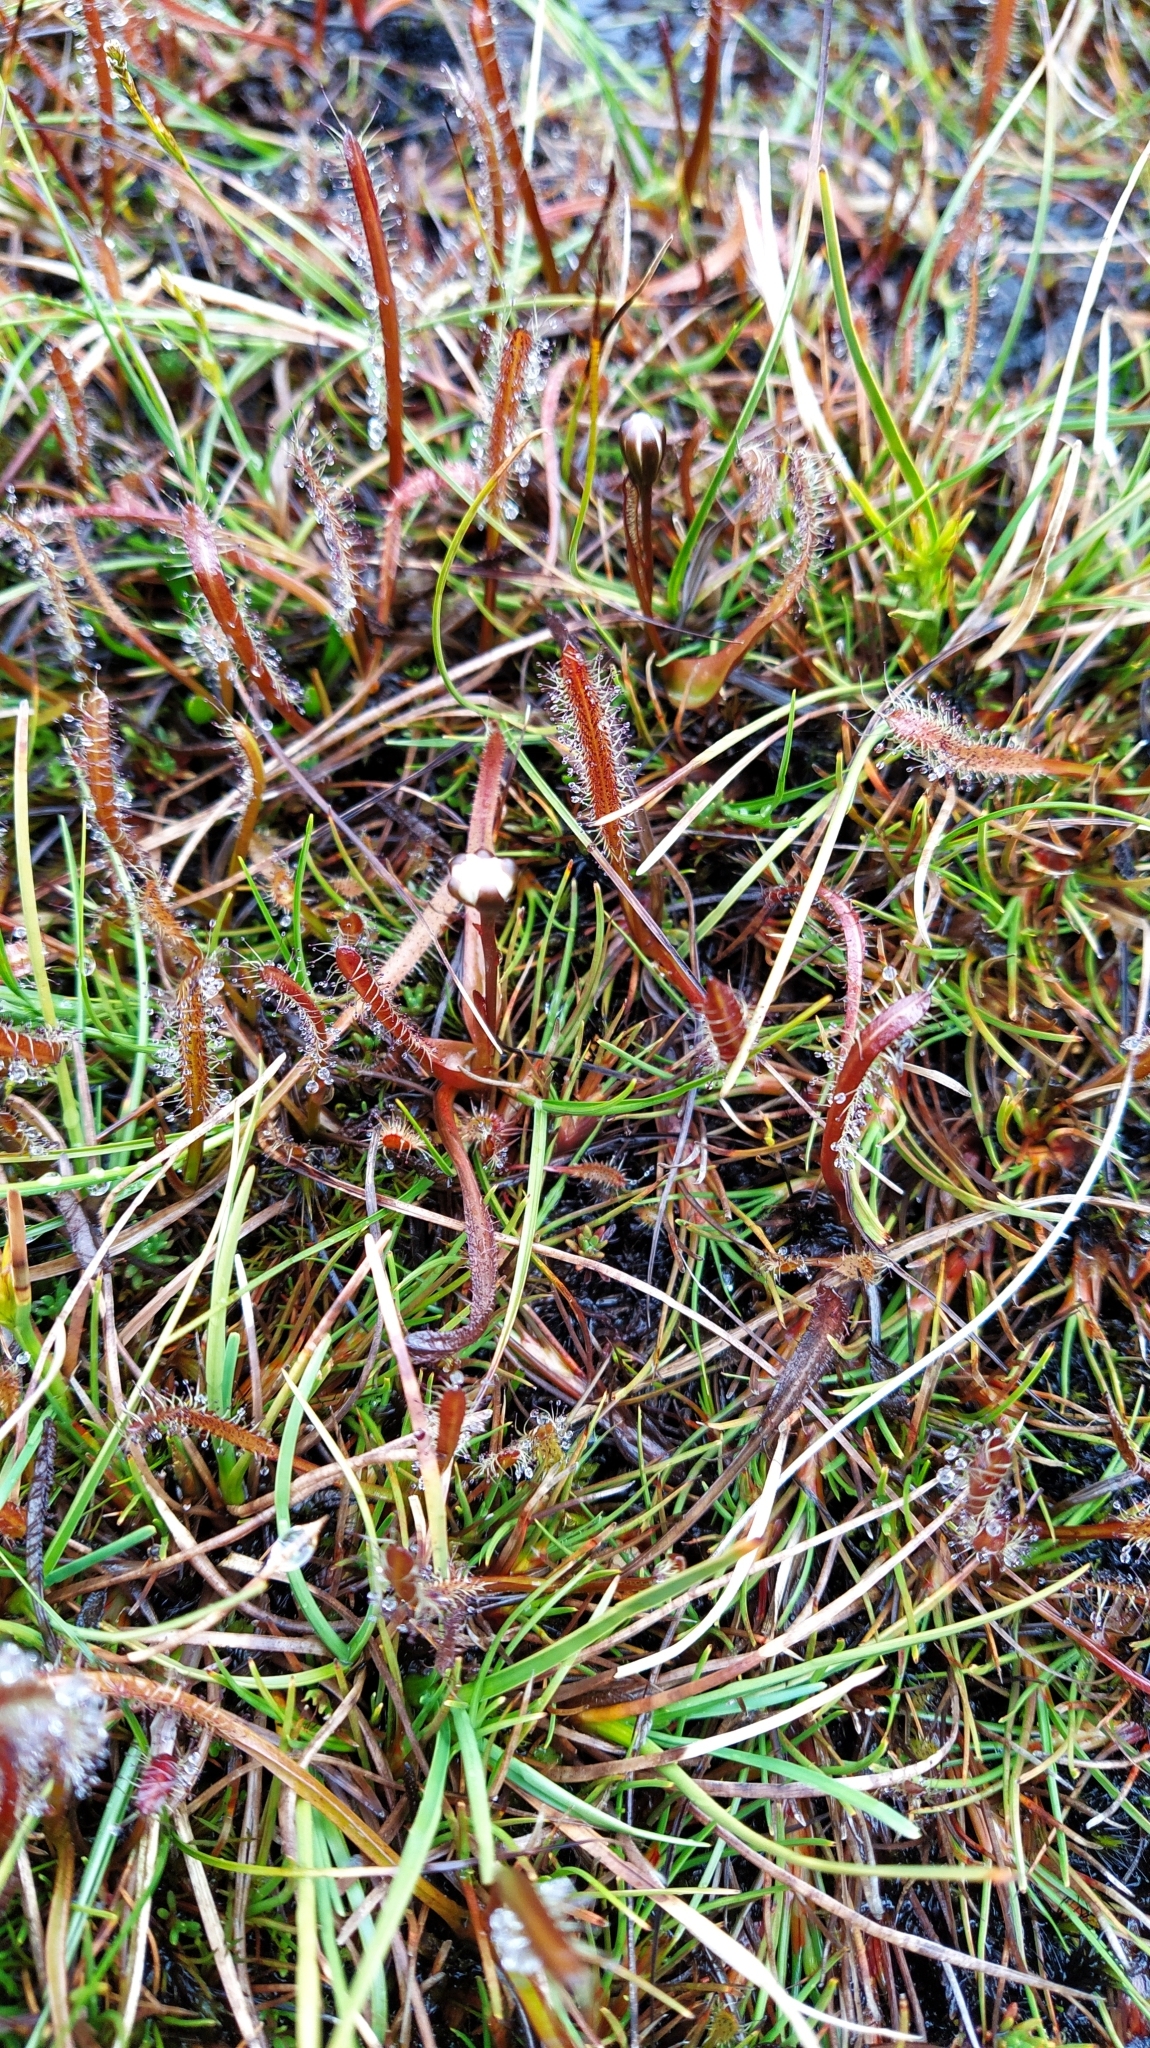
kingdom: Plantae
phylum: Tracheophyta
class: Magnoliopsida
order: Caryophyllales
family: Droseraceae
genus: Drosera
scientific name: Drosera arcturi
